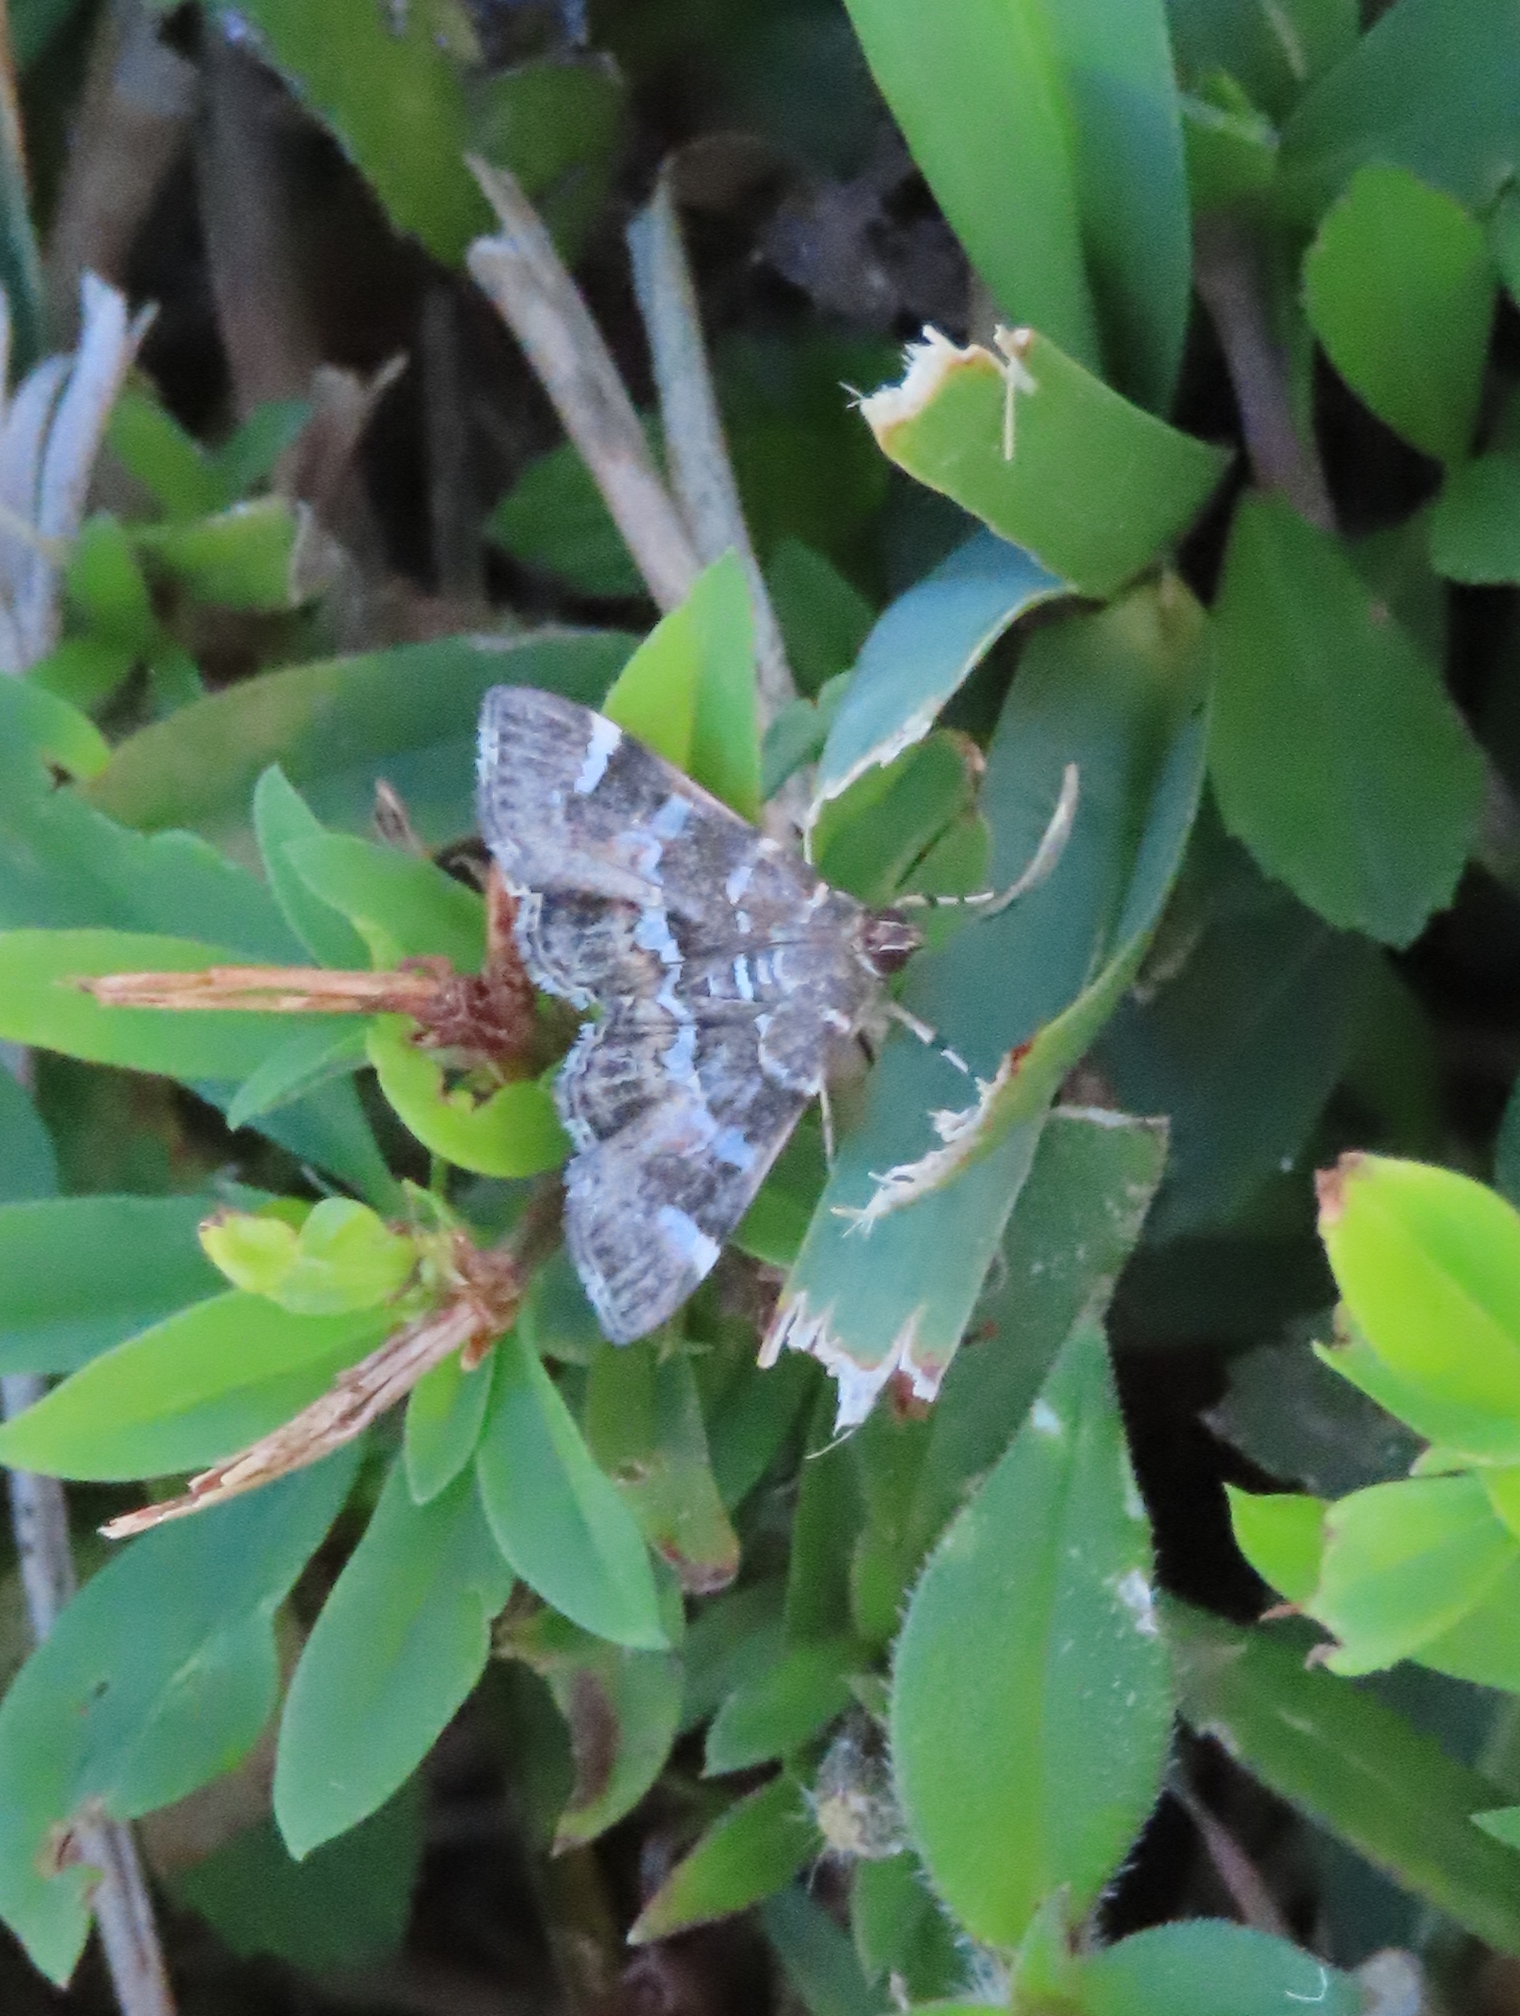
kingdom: Animalia
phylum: Arthropoda
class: Insecta
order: Lepidoptera
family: Crambidae
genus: Hymenia
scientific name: Hymenia perspectalis
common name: Spotted beet webworm
